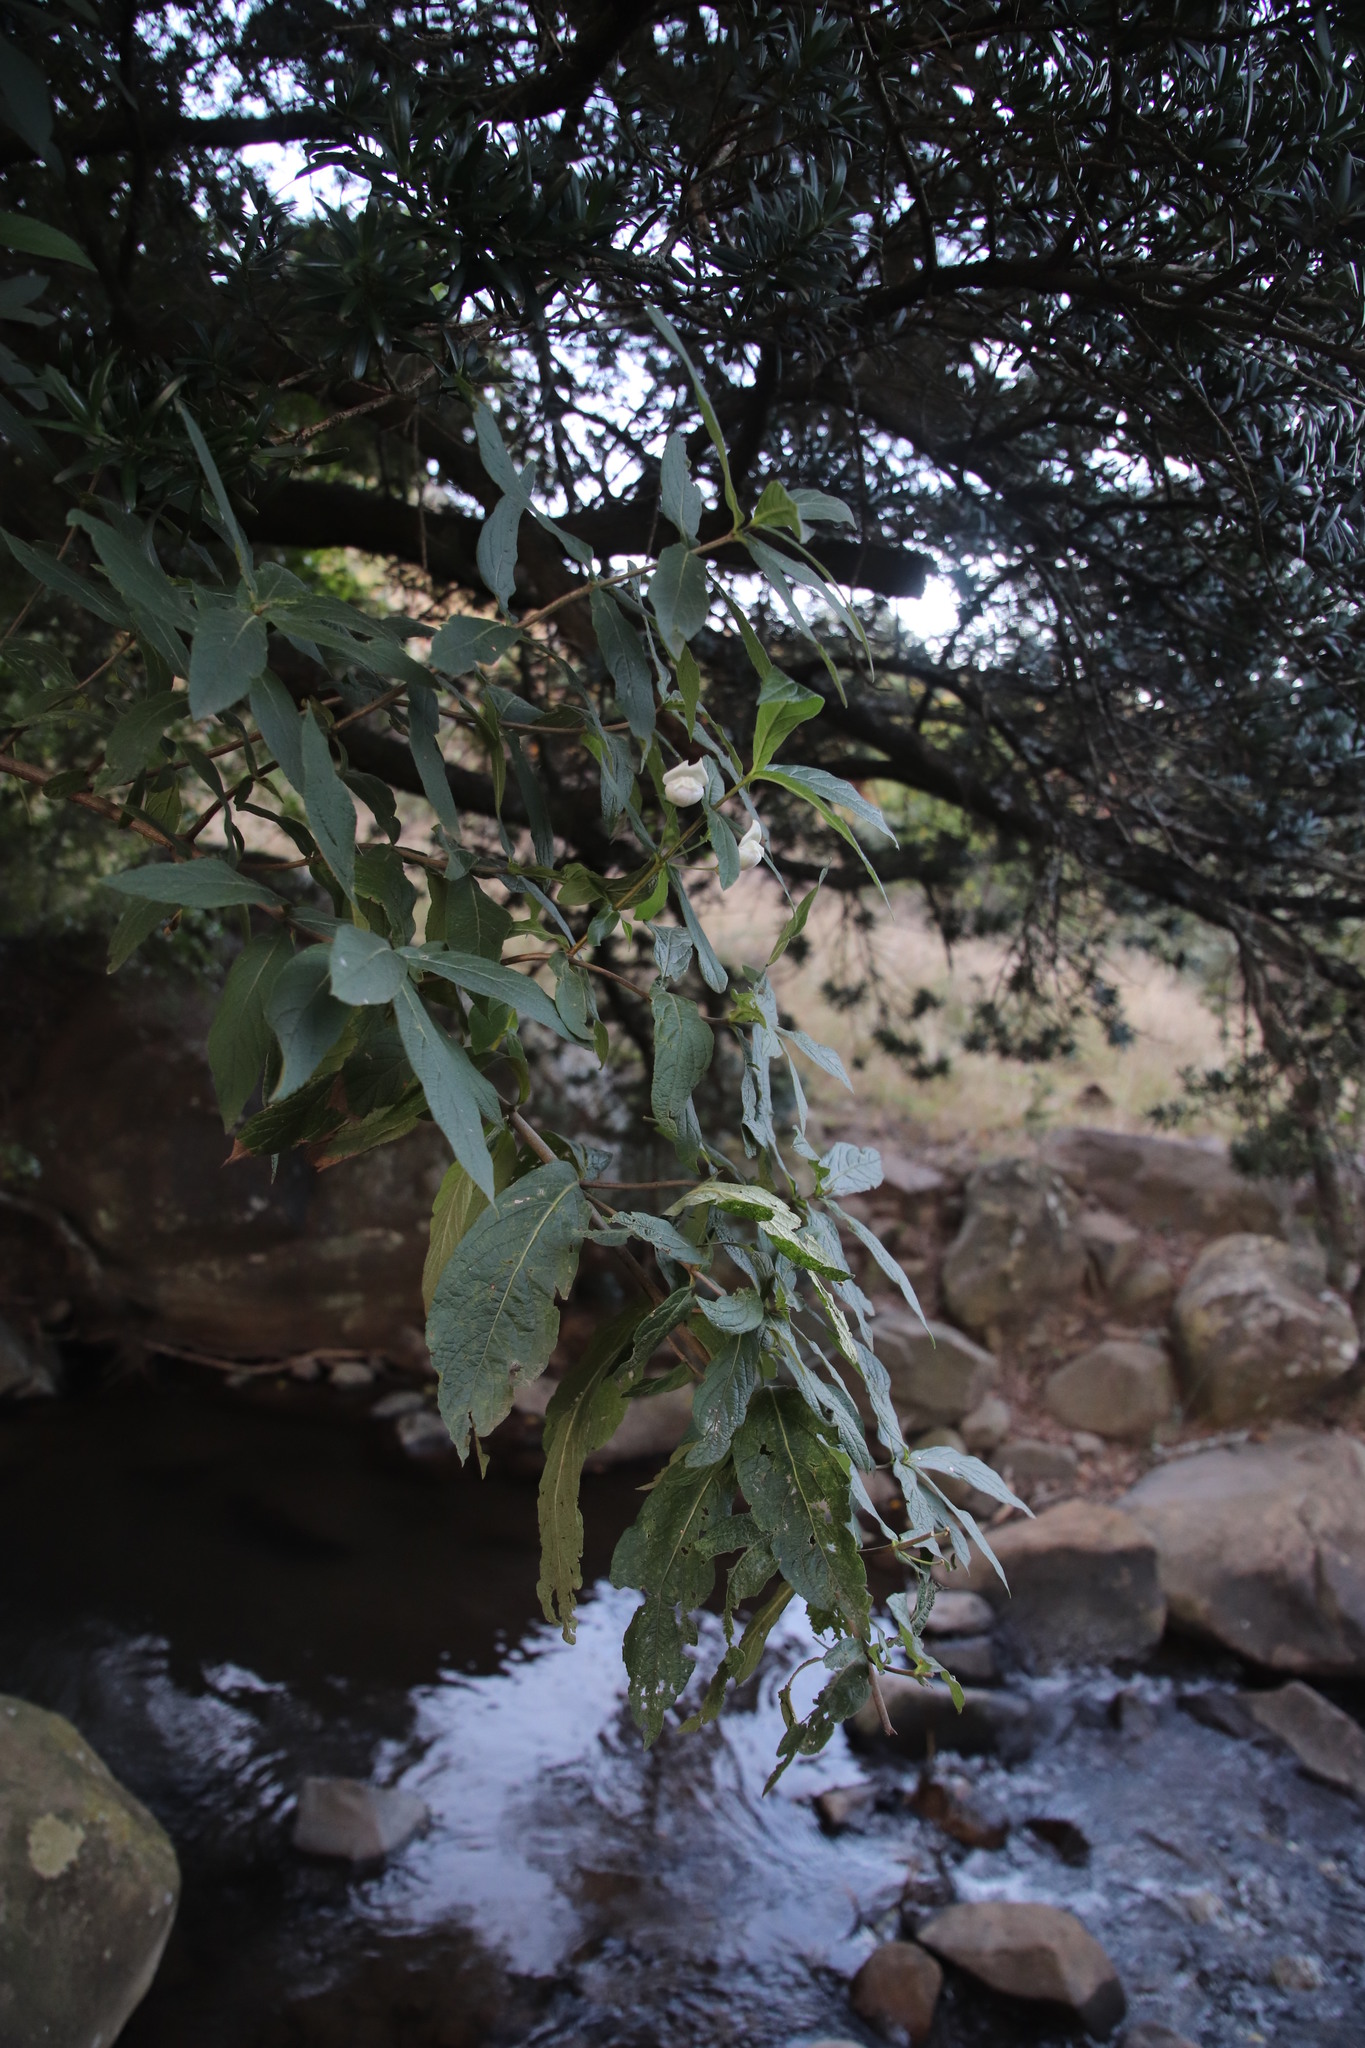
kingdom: Plantae
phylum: Tracheophyta
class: Magnoliopsida
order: Lamiales
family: Stilbaceae
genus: Bowkeria
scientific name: Bowkeria verticillata
